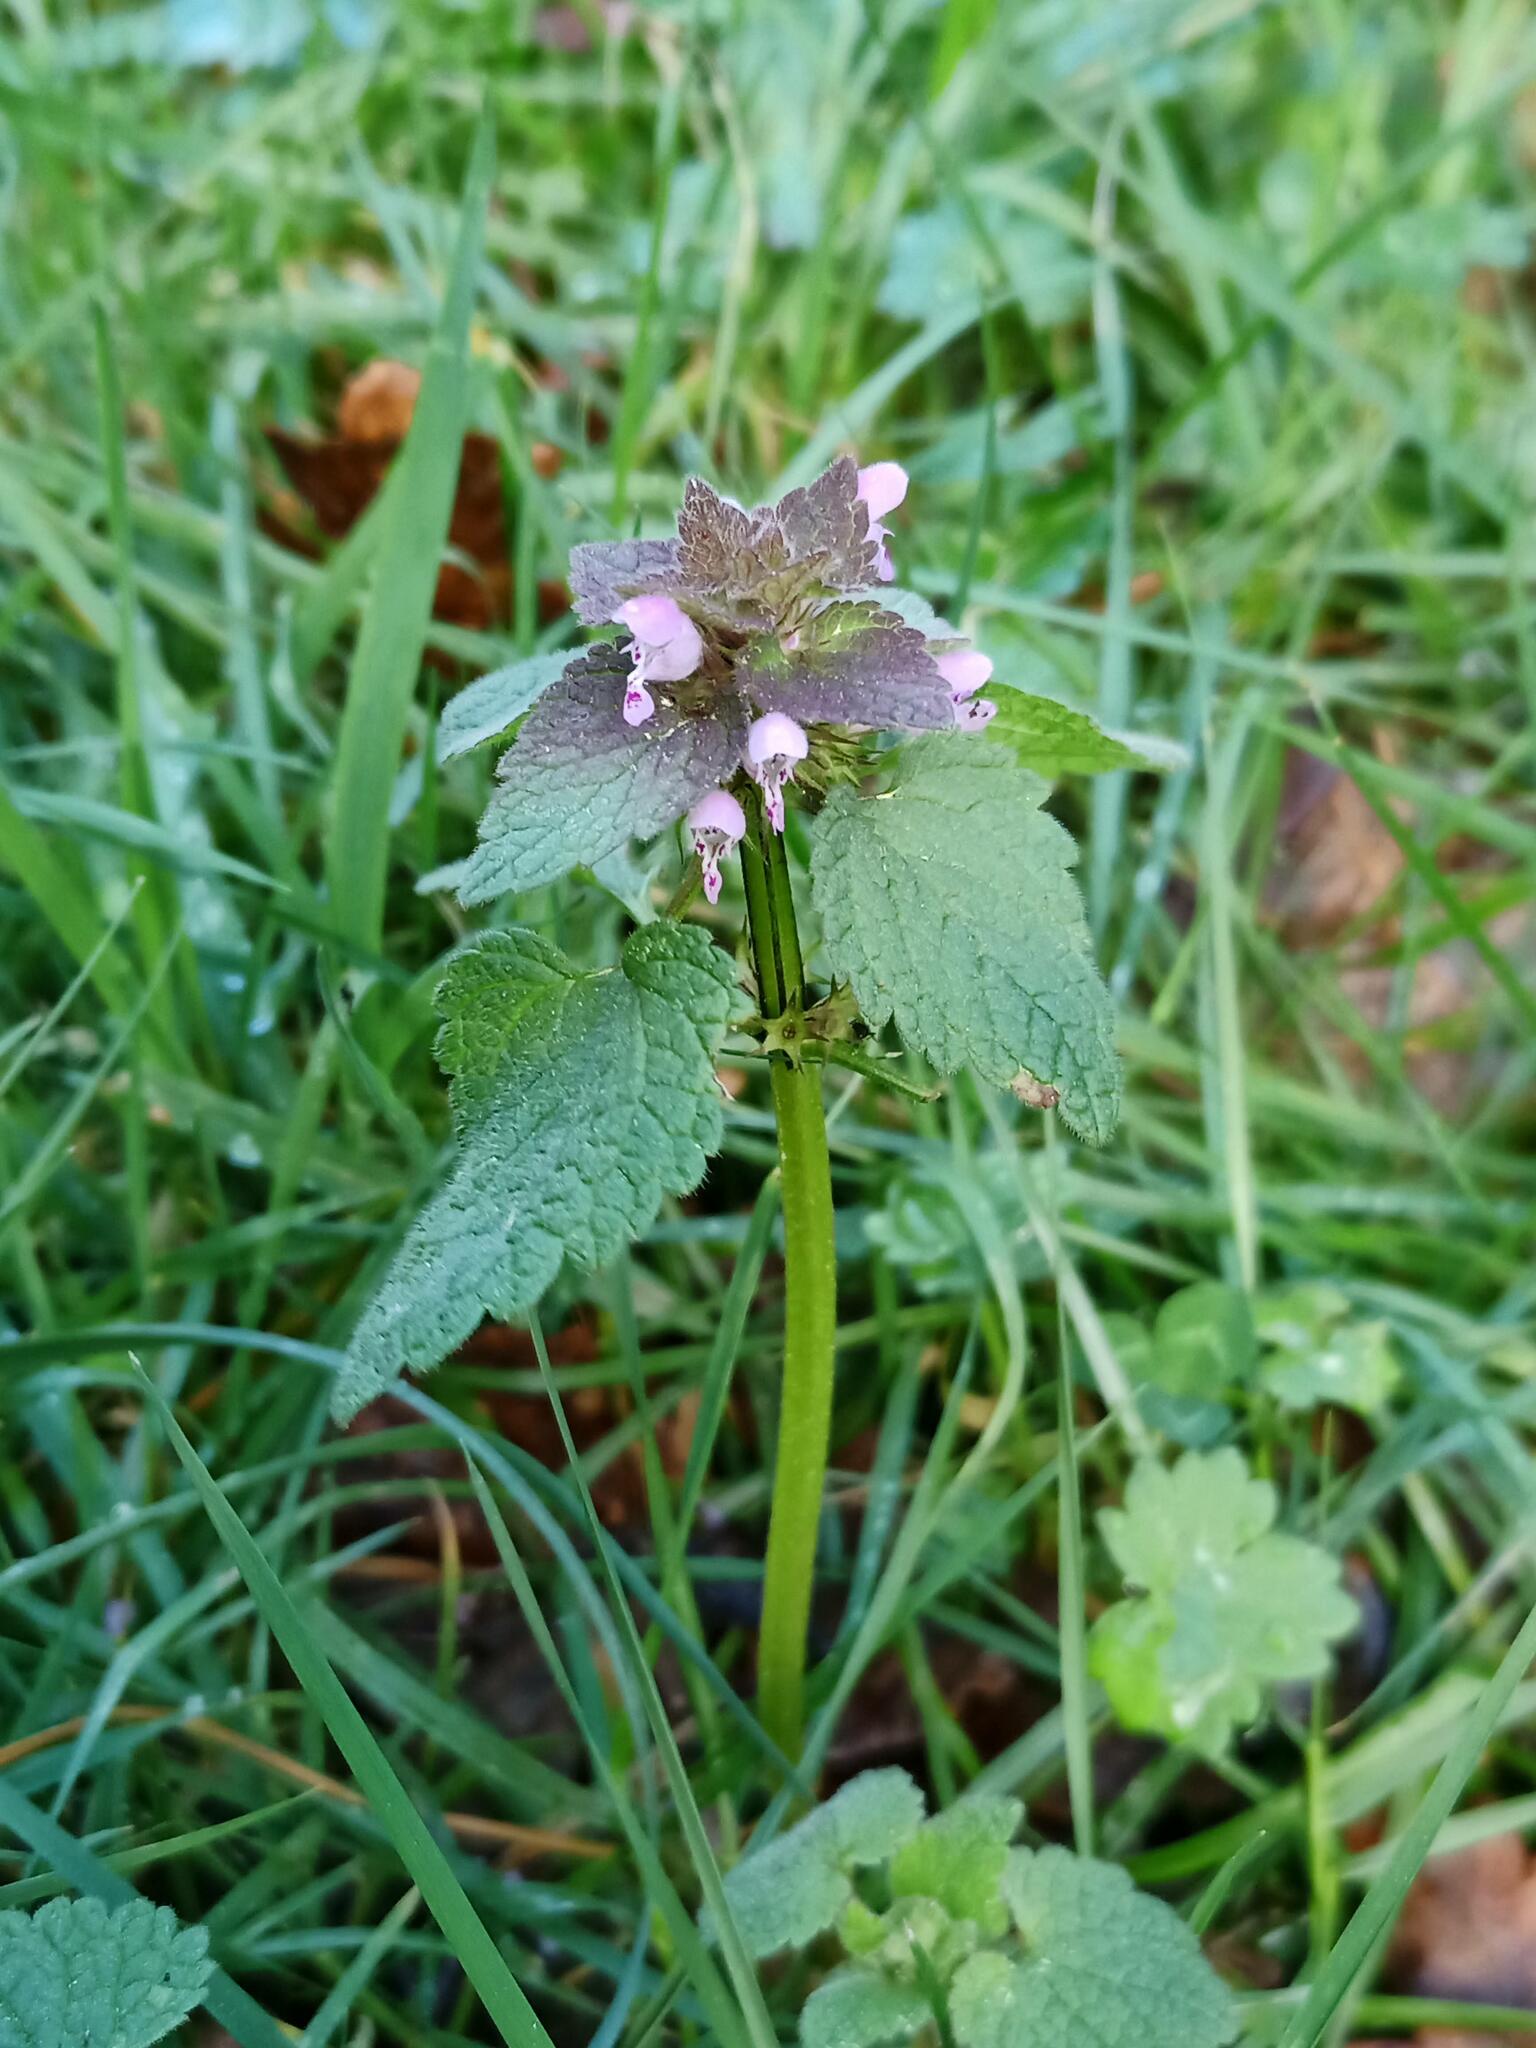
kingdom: Plantae
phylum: Tracheophyta
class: Magnoliopsida
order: Lamiales
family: Lamiaceae
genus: Lamium
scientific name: Lamium purpureum
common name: Red dead-nettle
